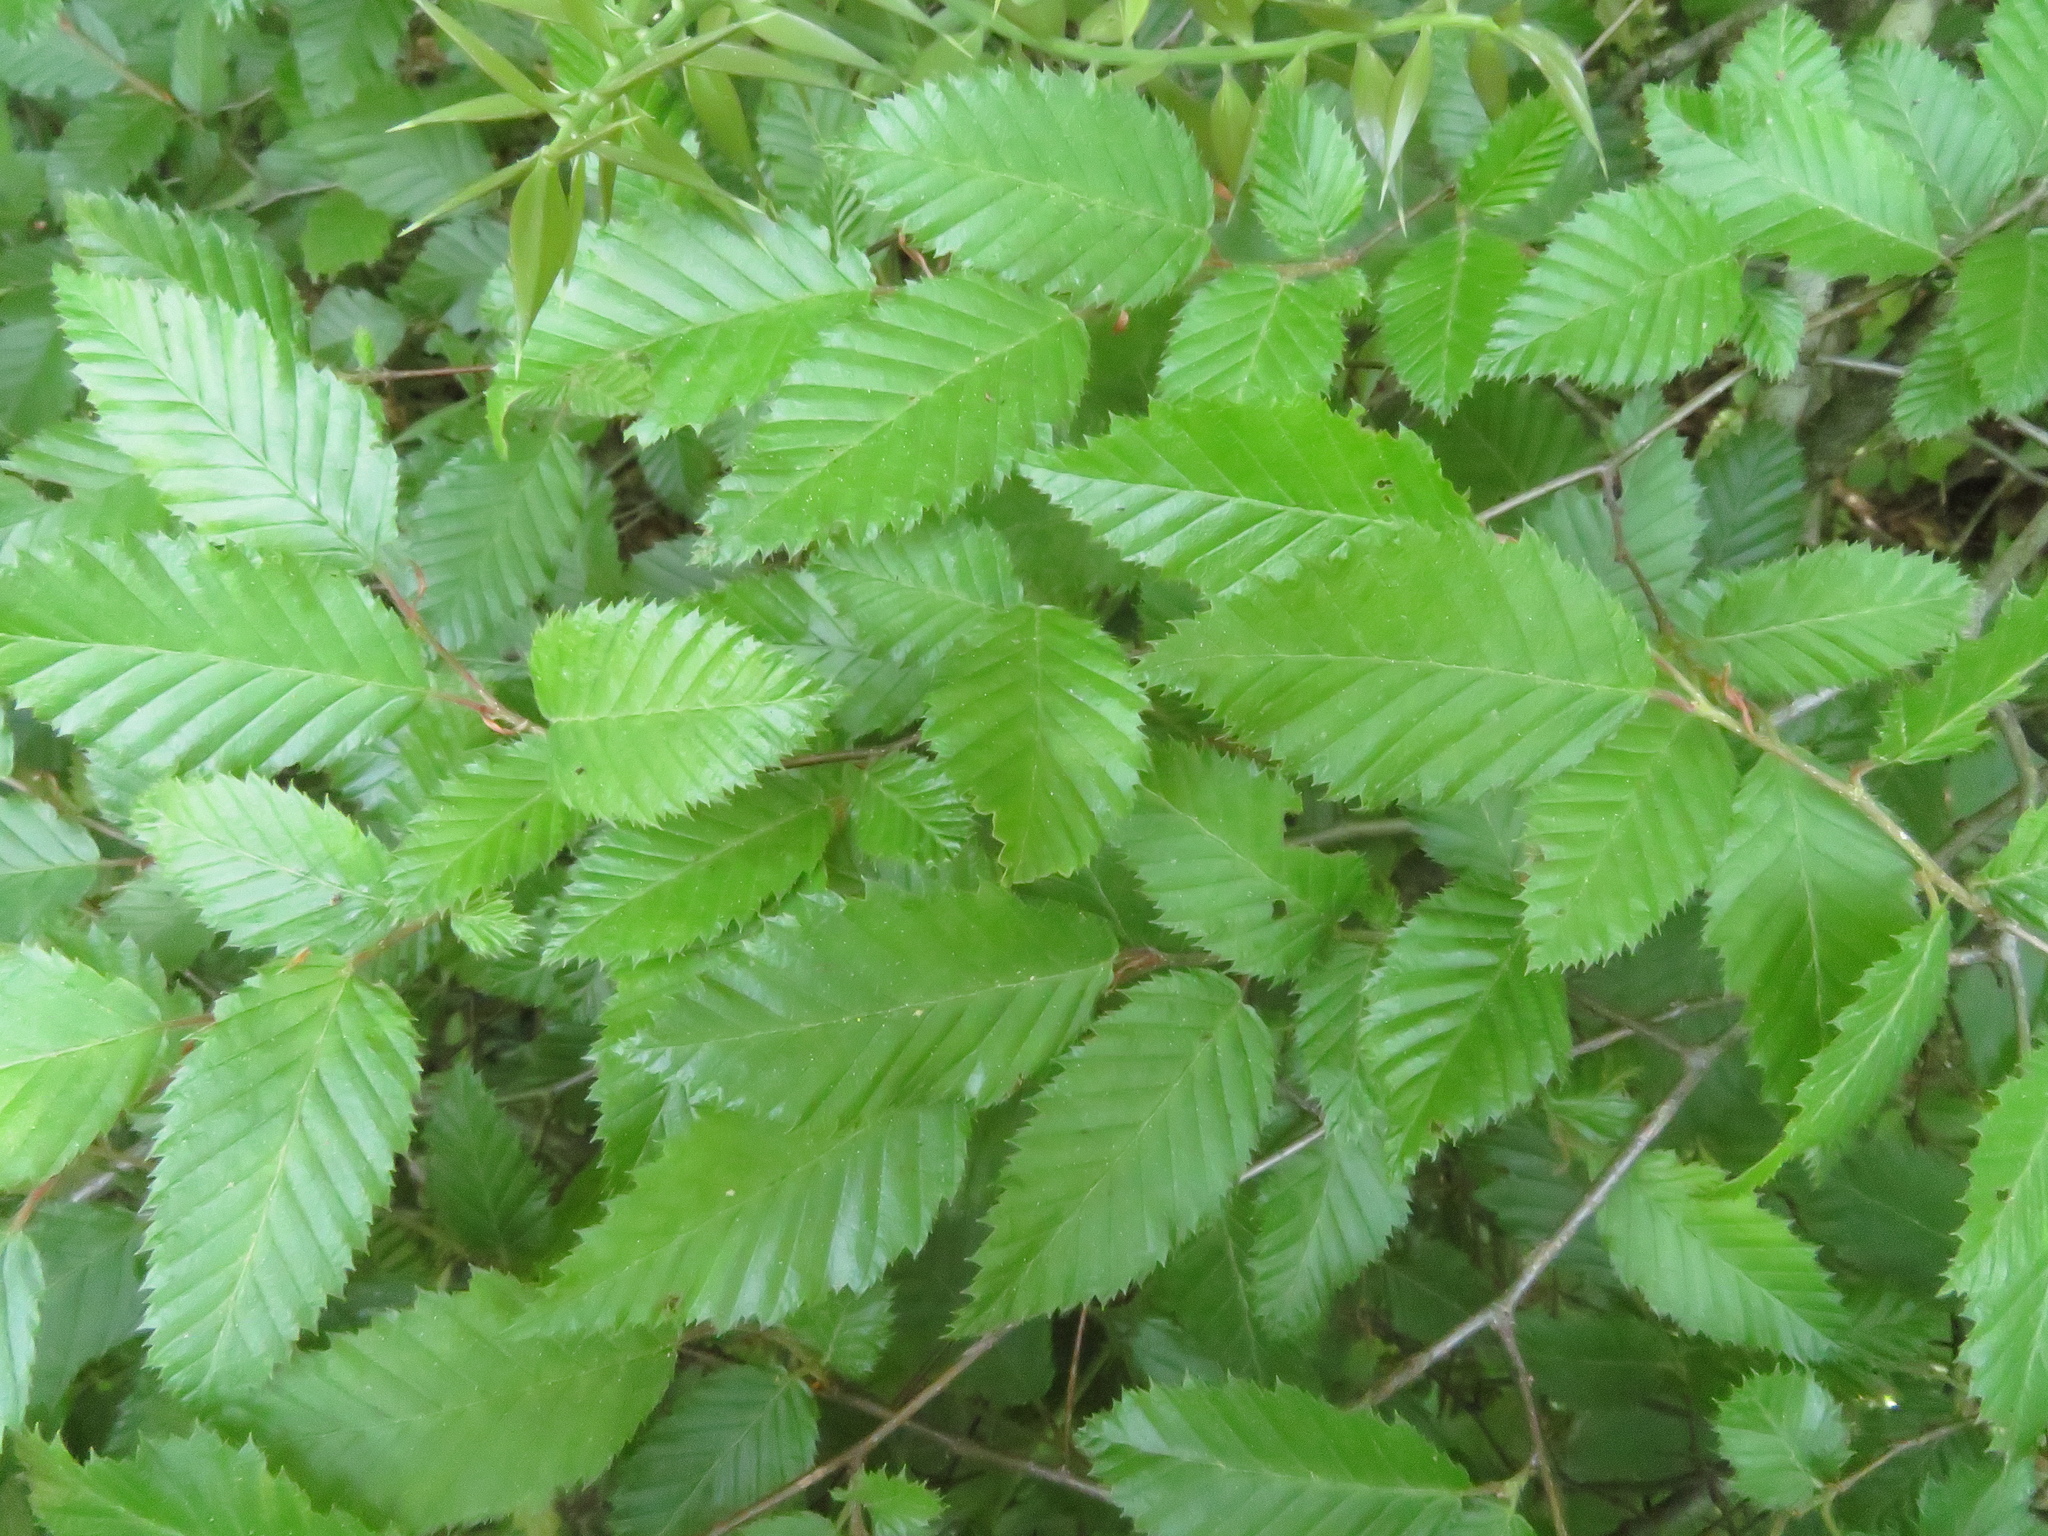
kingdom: Plantae
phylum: Tracheophyta
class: Magnoliopsida
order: Fagales
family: Betulaceae
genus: Carpinus
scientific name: Carpinus orientalis
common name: Eastern hornbeam
